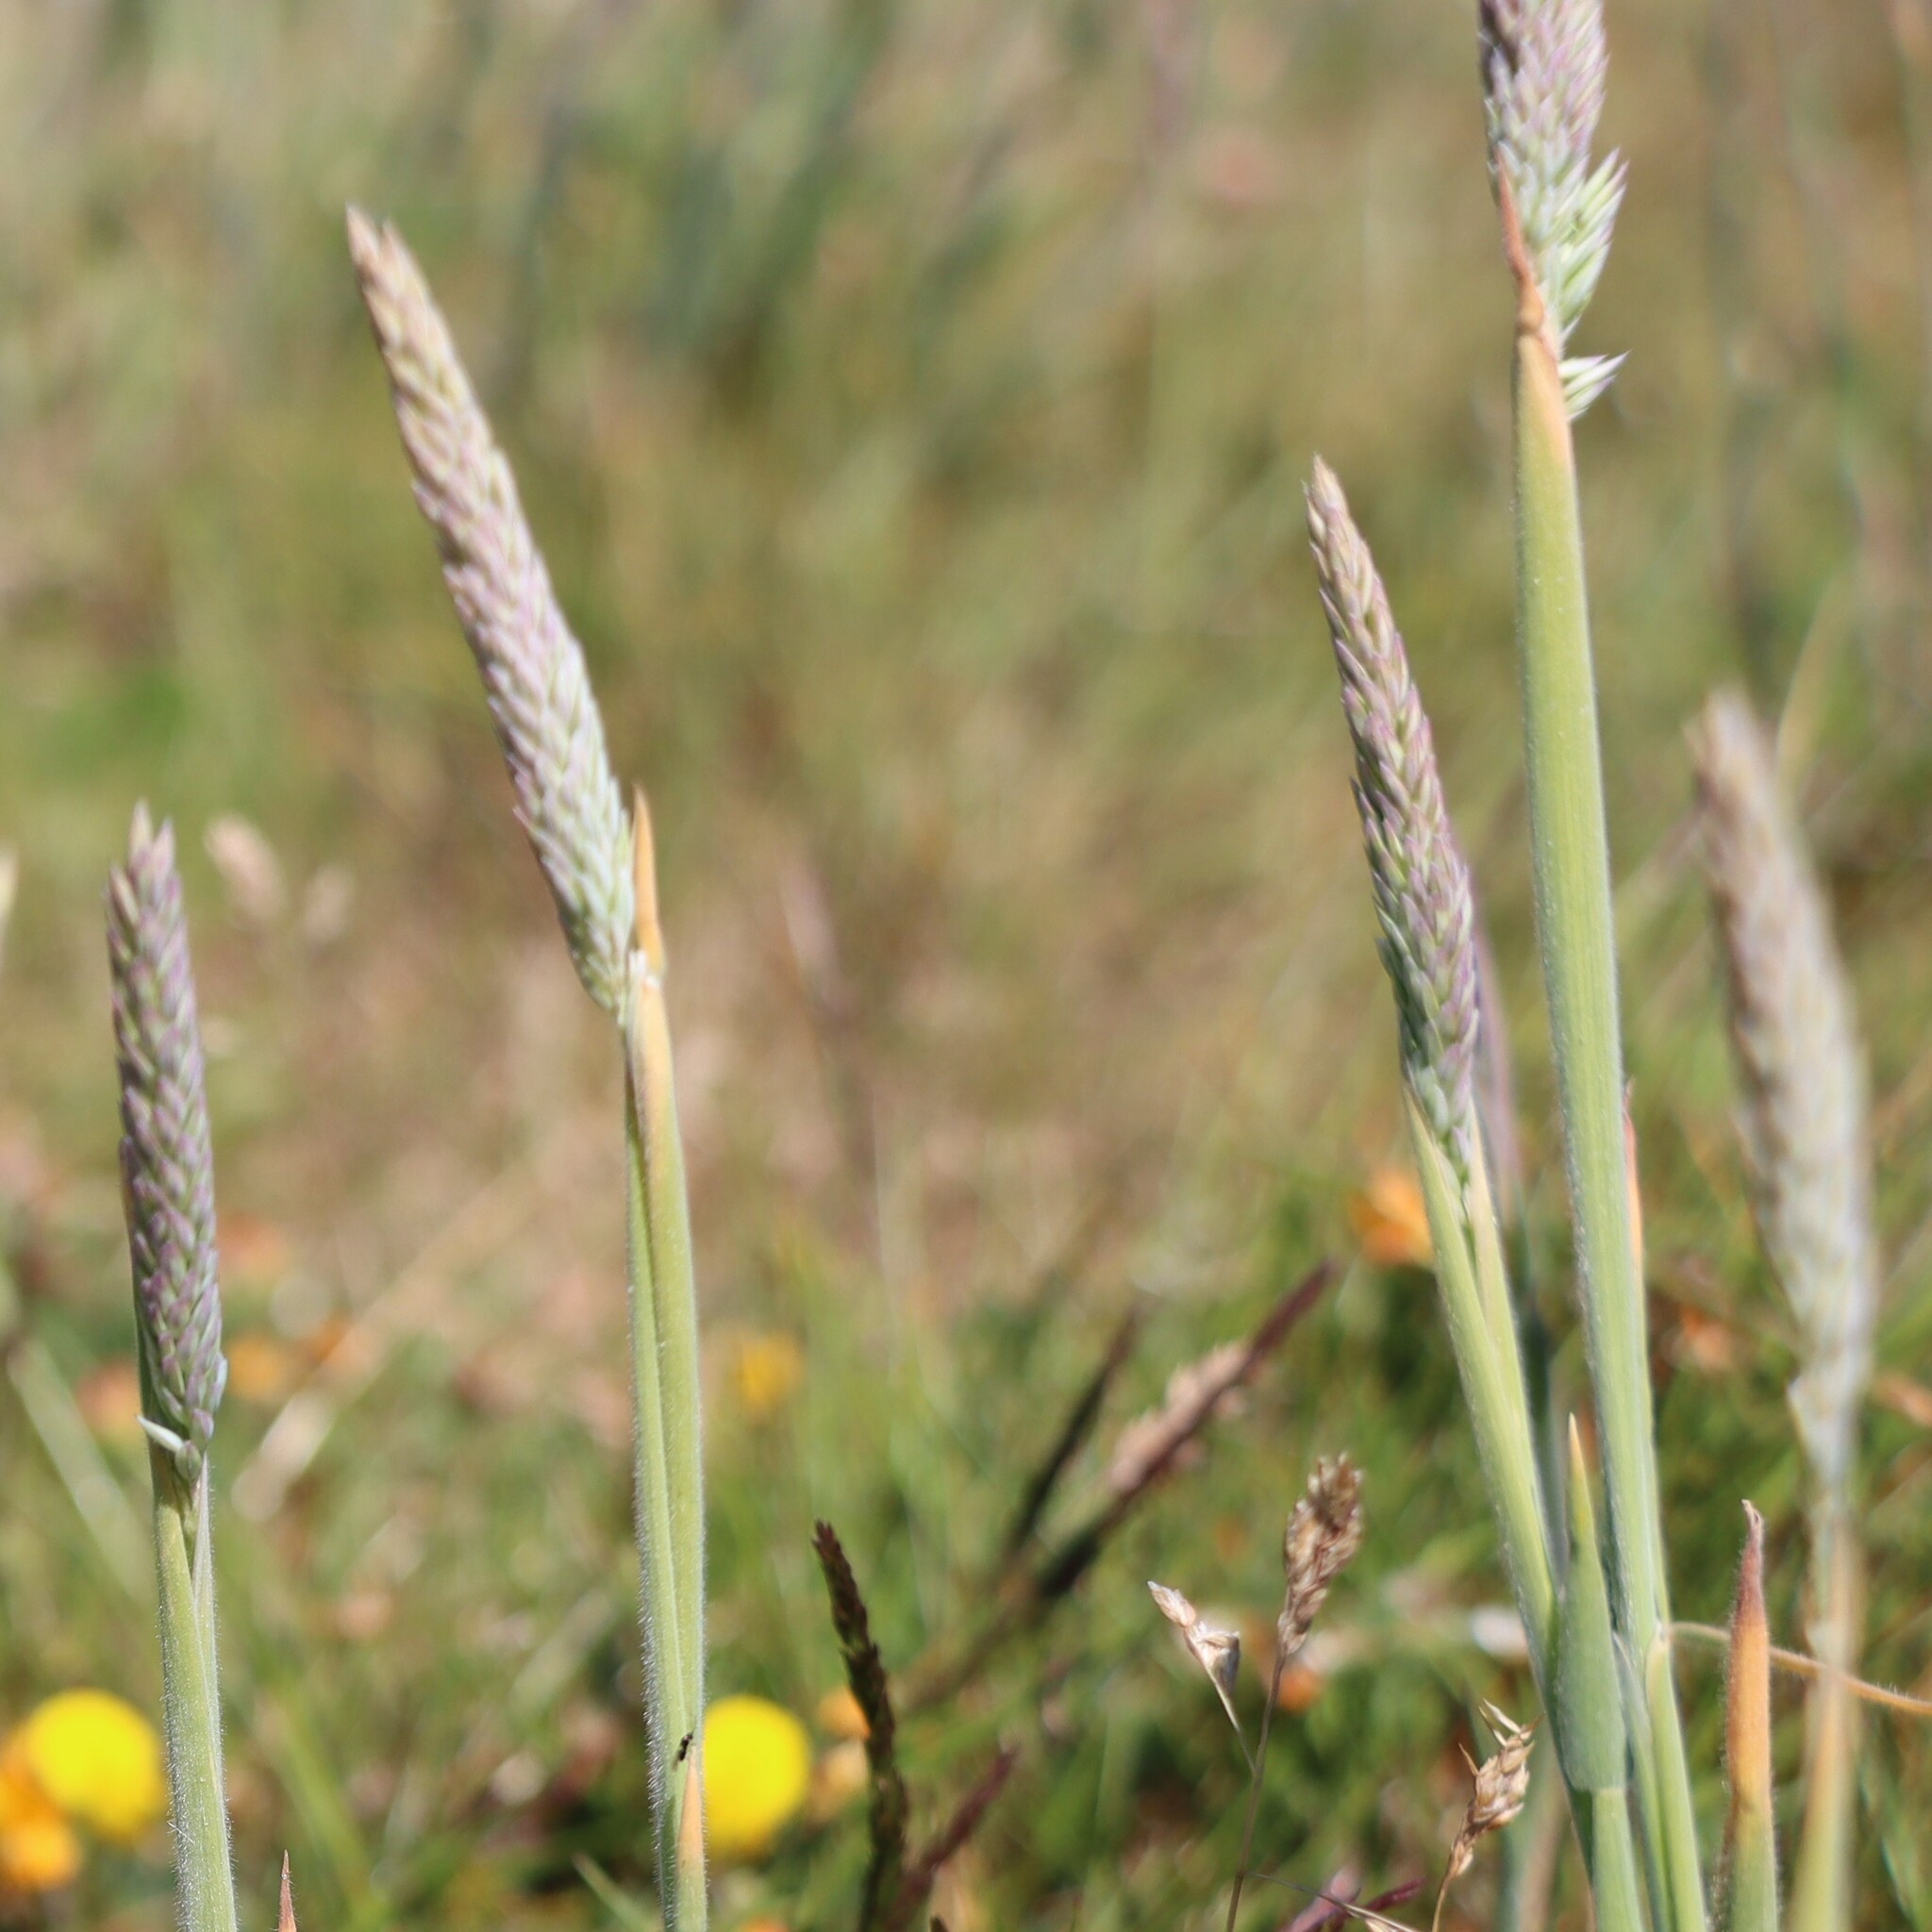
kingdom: Plantae
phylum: Tracheophyta
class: Liliopsida
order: Poales
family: Poaceae
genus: Holcus
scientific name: Holcus lanatus
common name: Yorkshire-fog
